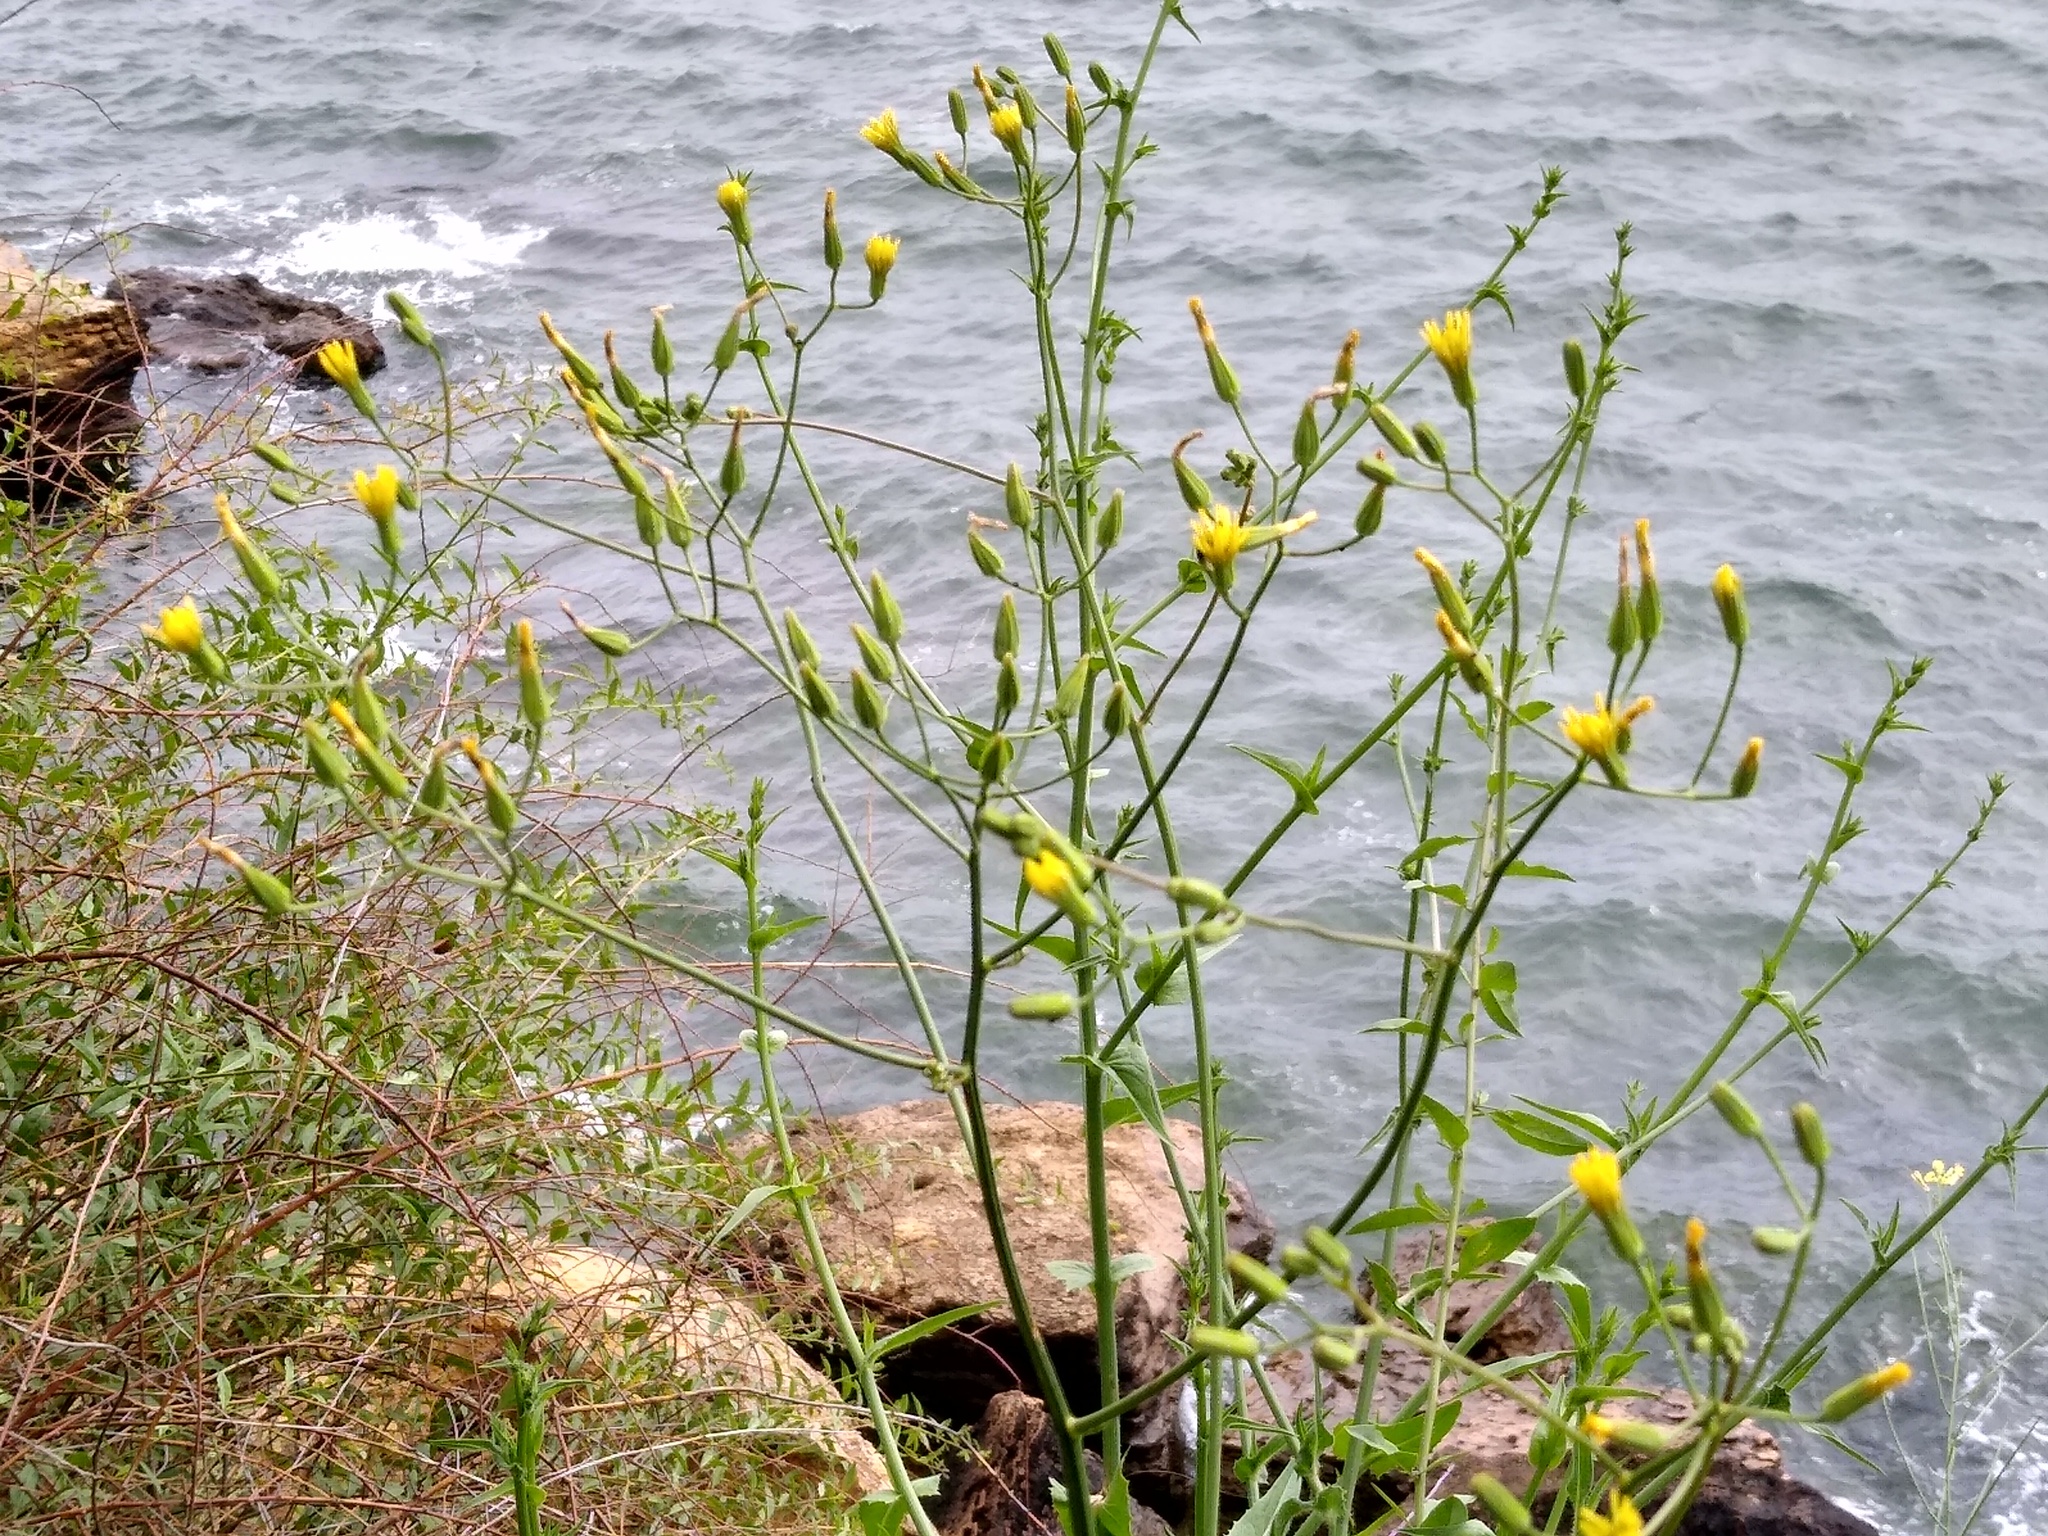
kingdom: Plantae
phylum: Tracheophyta
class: Magnoliopsida
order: Asterales
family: Asteraceae
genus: Crepis
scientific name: Crepis pulchra
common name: Hawk's-beard
